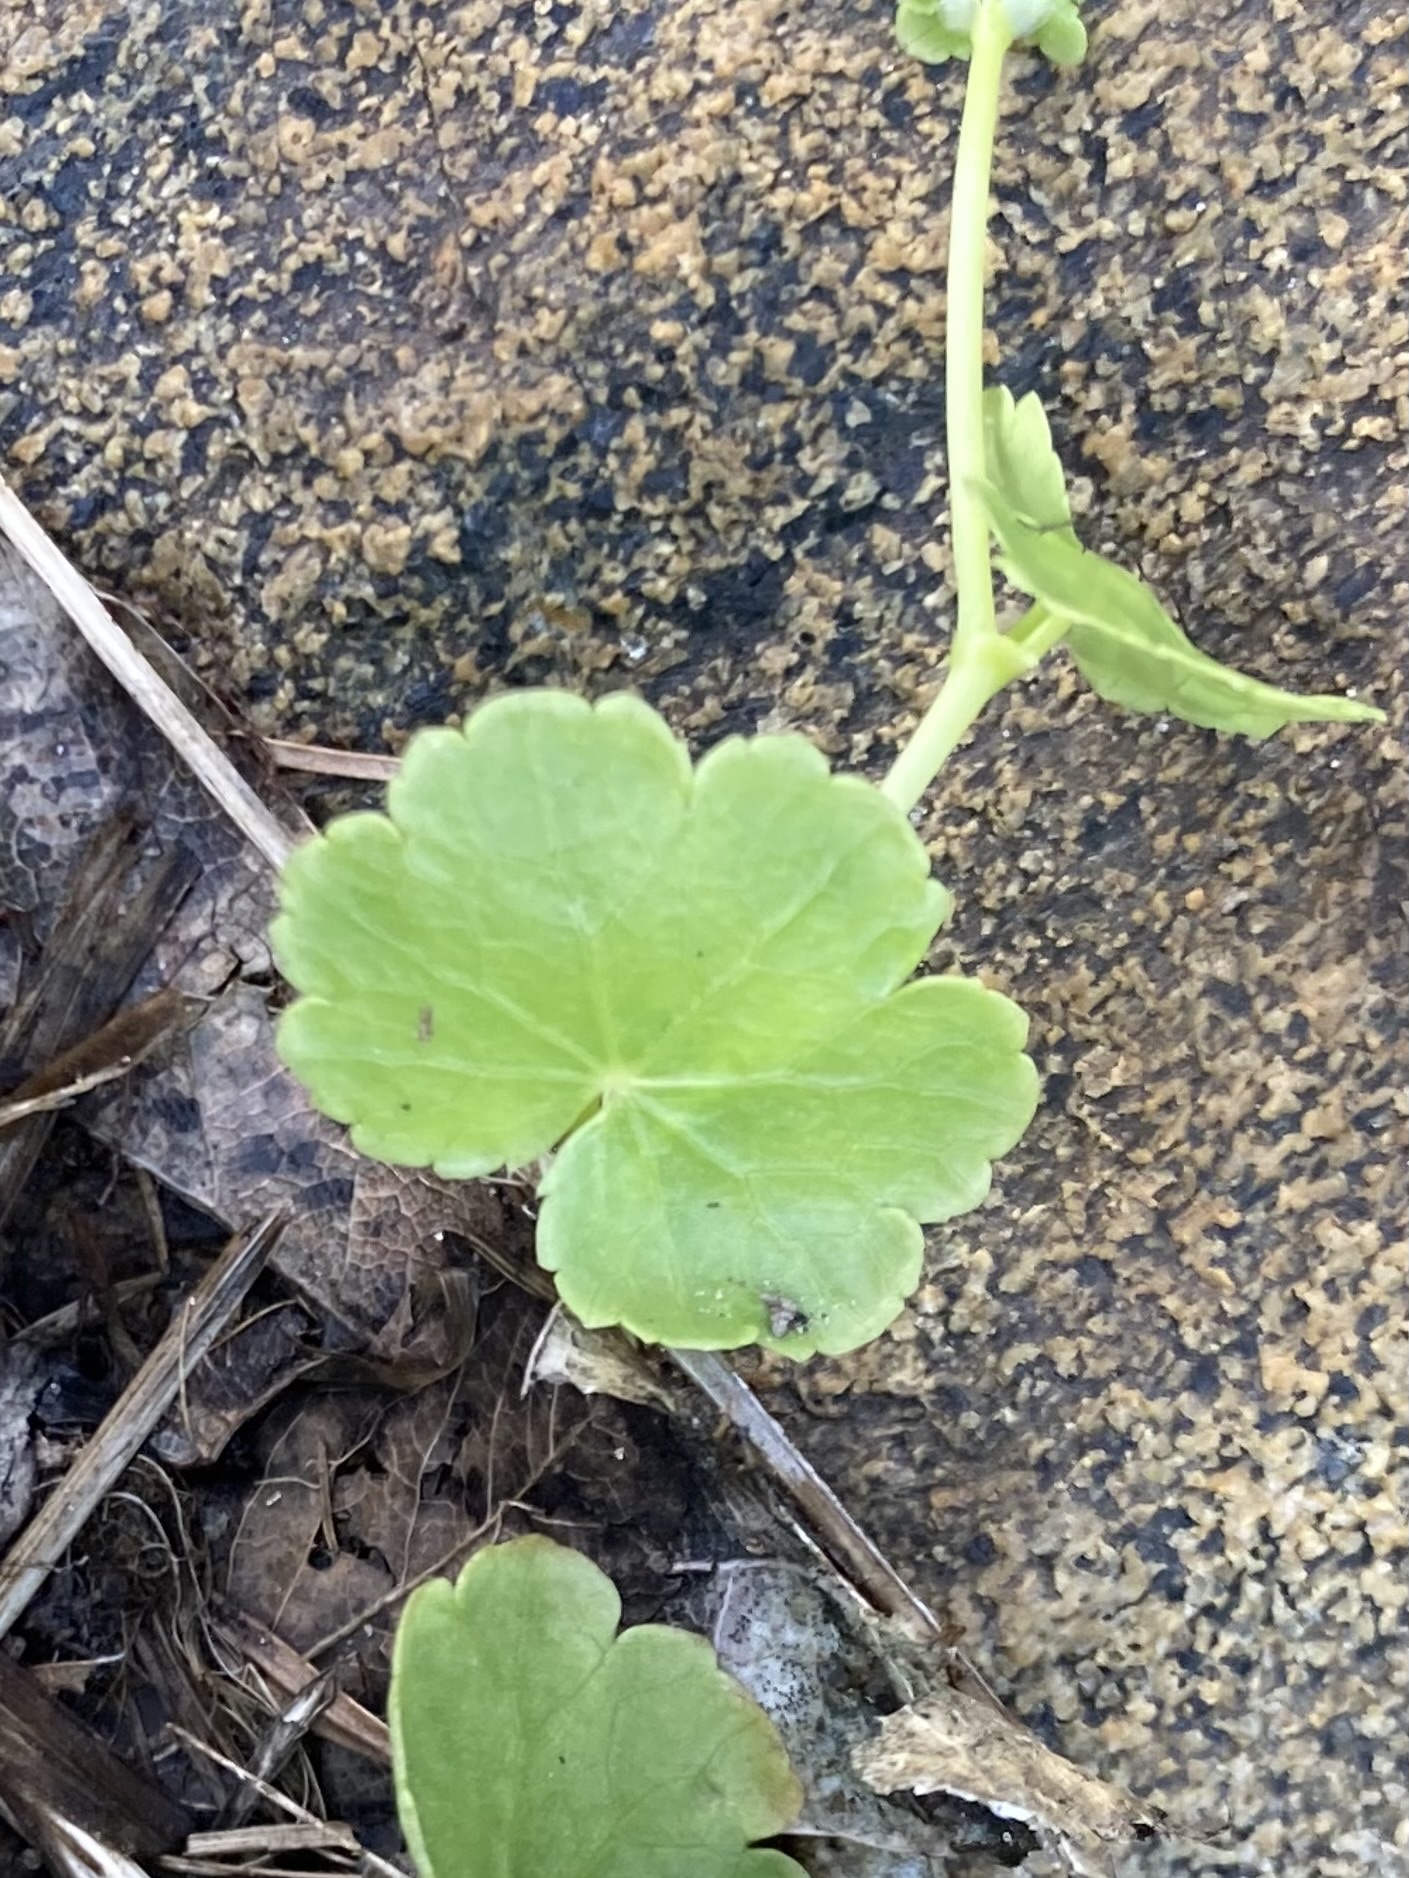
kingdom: Plantae
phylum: Tracheophyta
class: Magnoliopsida
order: Apiales
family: Araliaceae
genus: Hydrocotyle
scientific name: Hydrocotyle americana
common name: American water-pennywort
